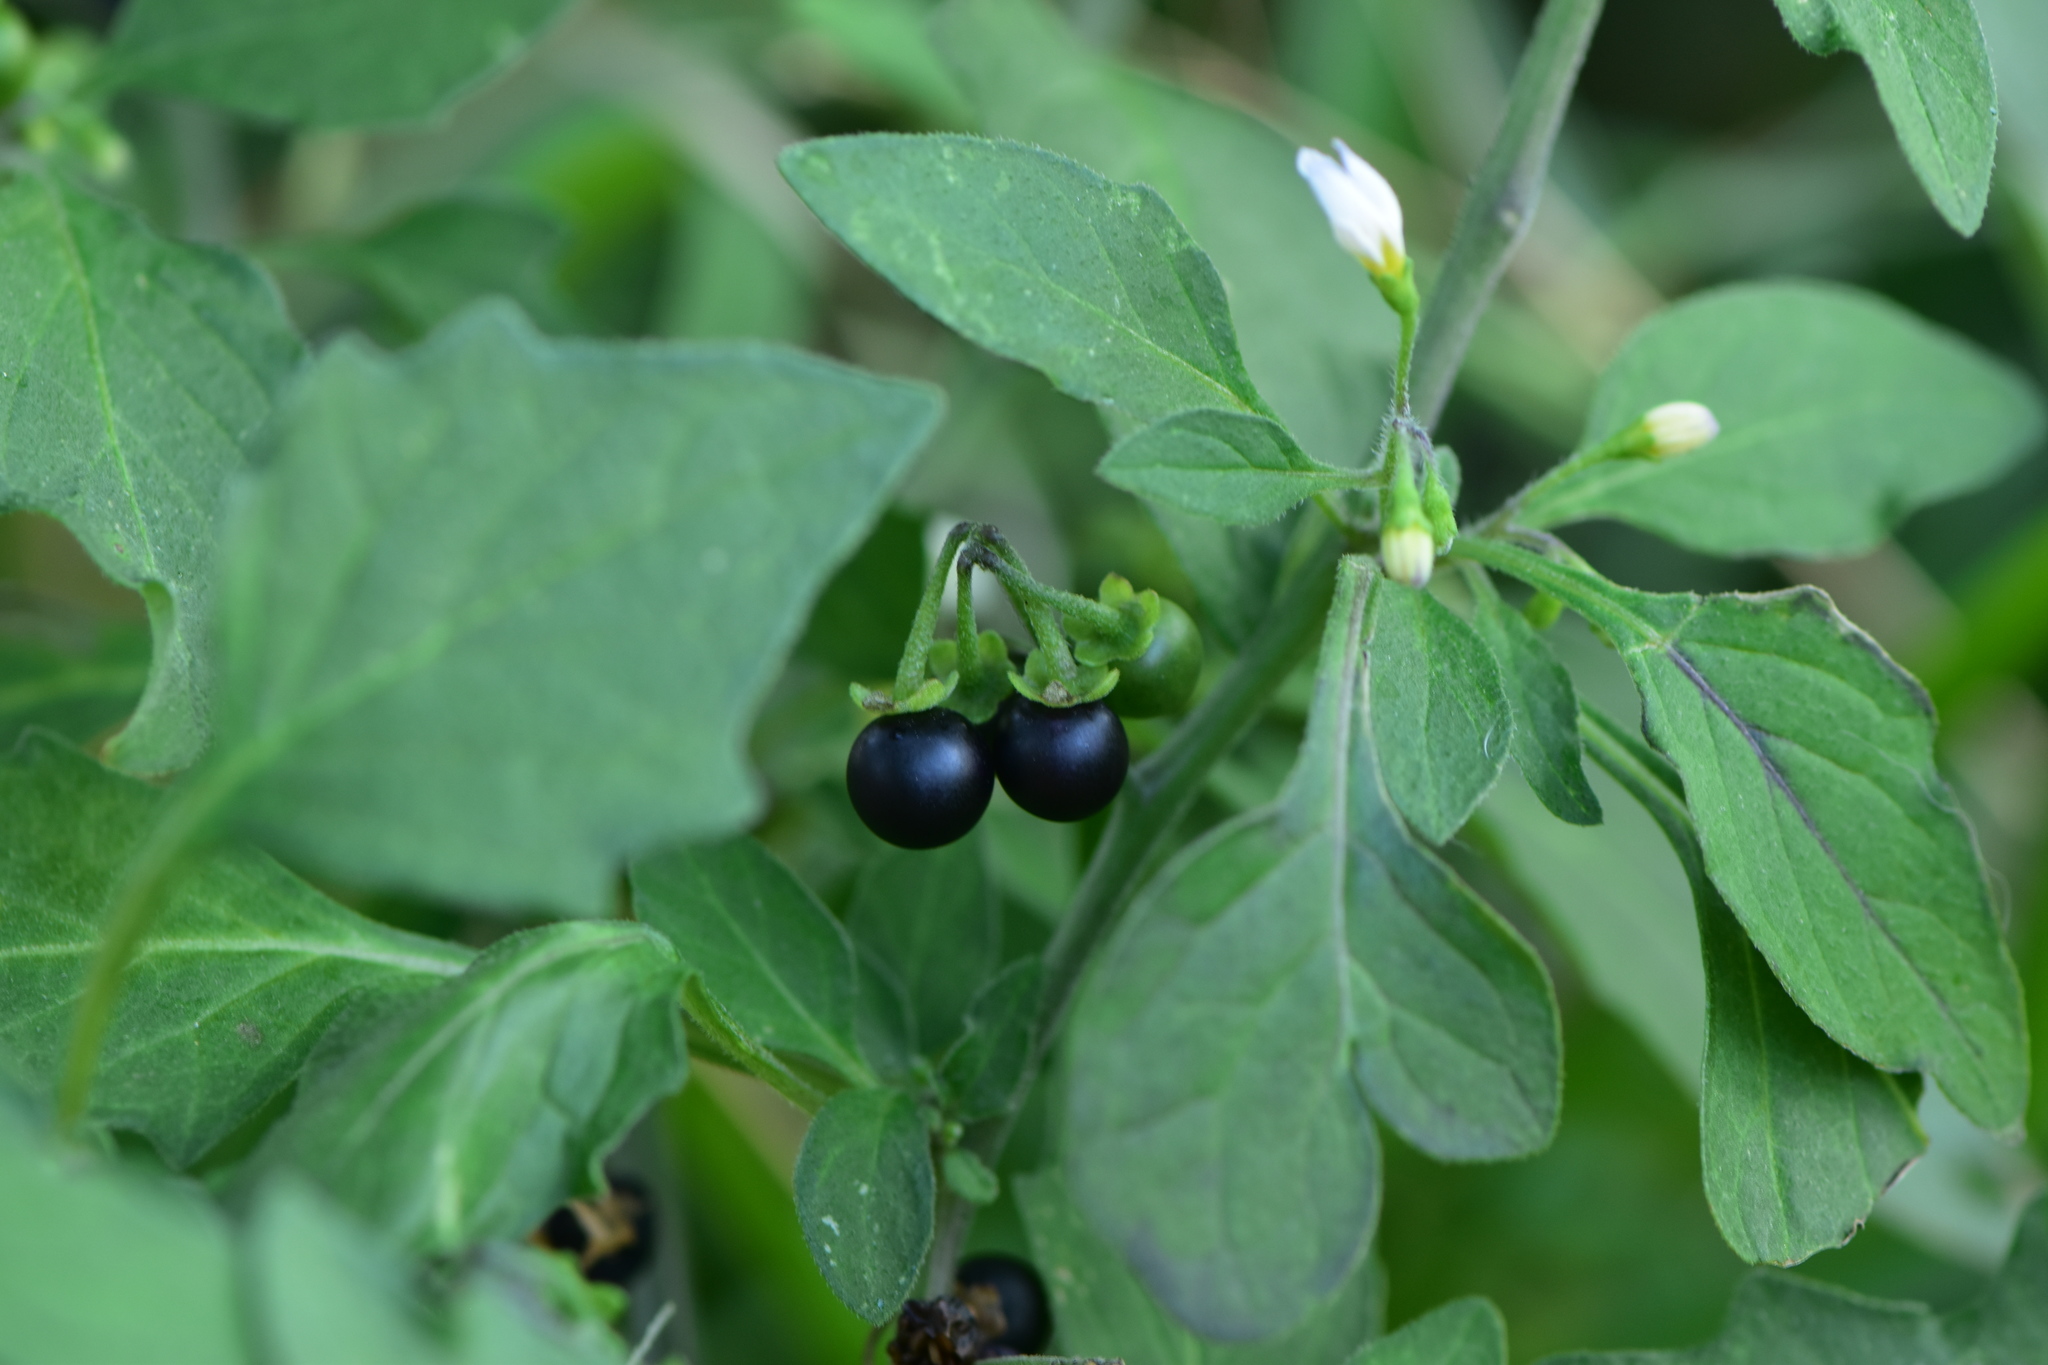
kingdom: Plantae
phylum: Tracheophyta
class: Magnoliopsida
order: Solanales
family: Solanaceae
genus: Solanum
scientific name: Solanum nigrum
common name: Black nightshade
